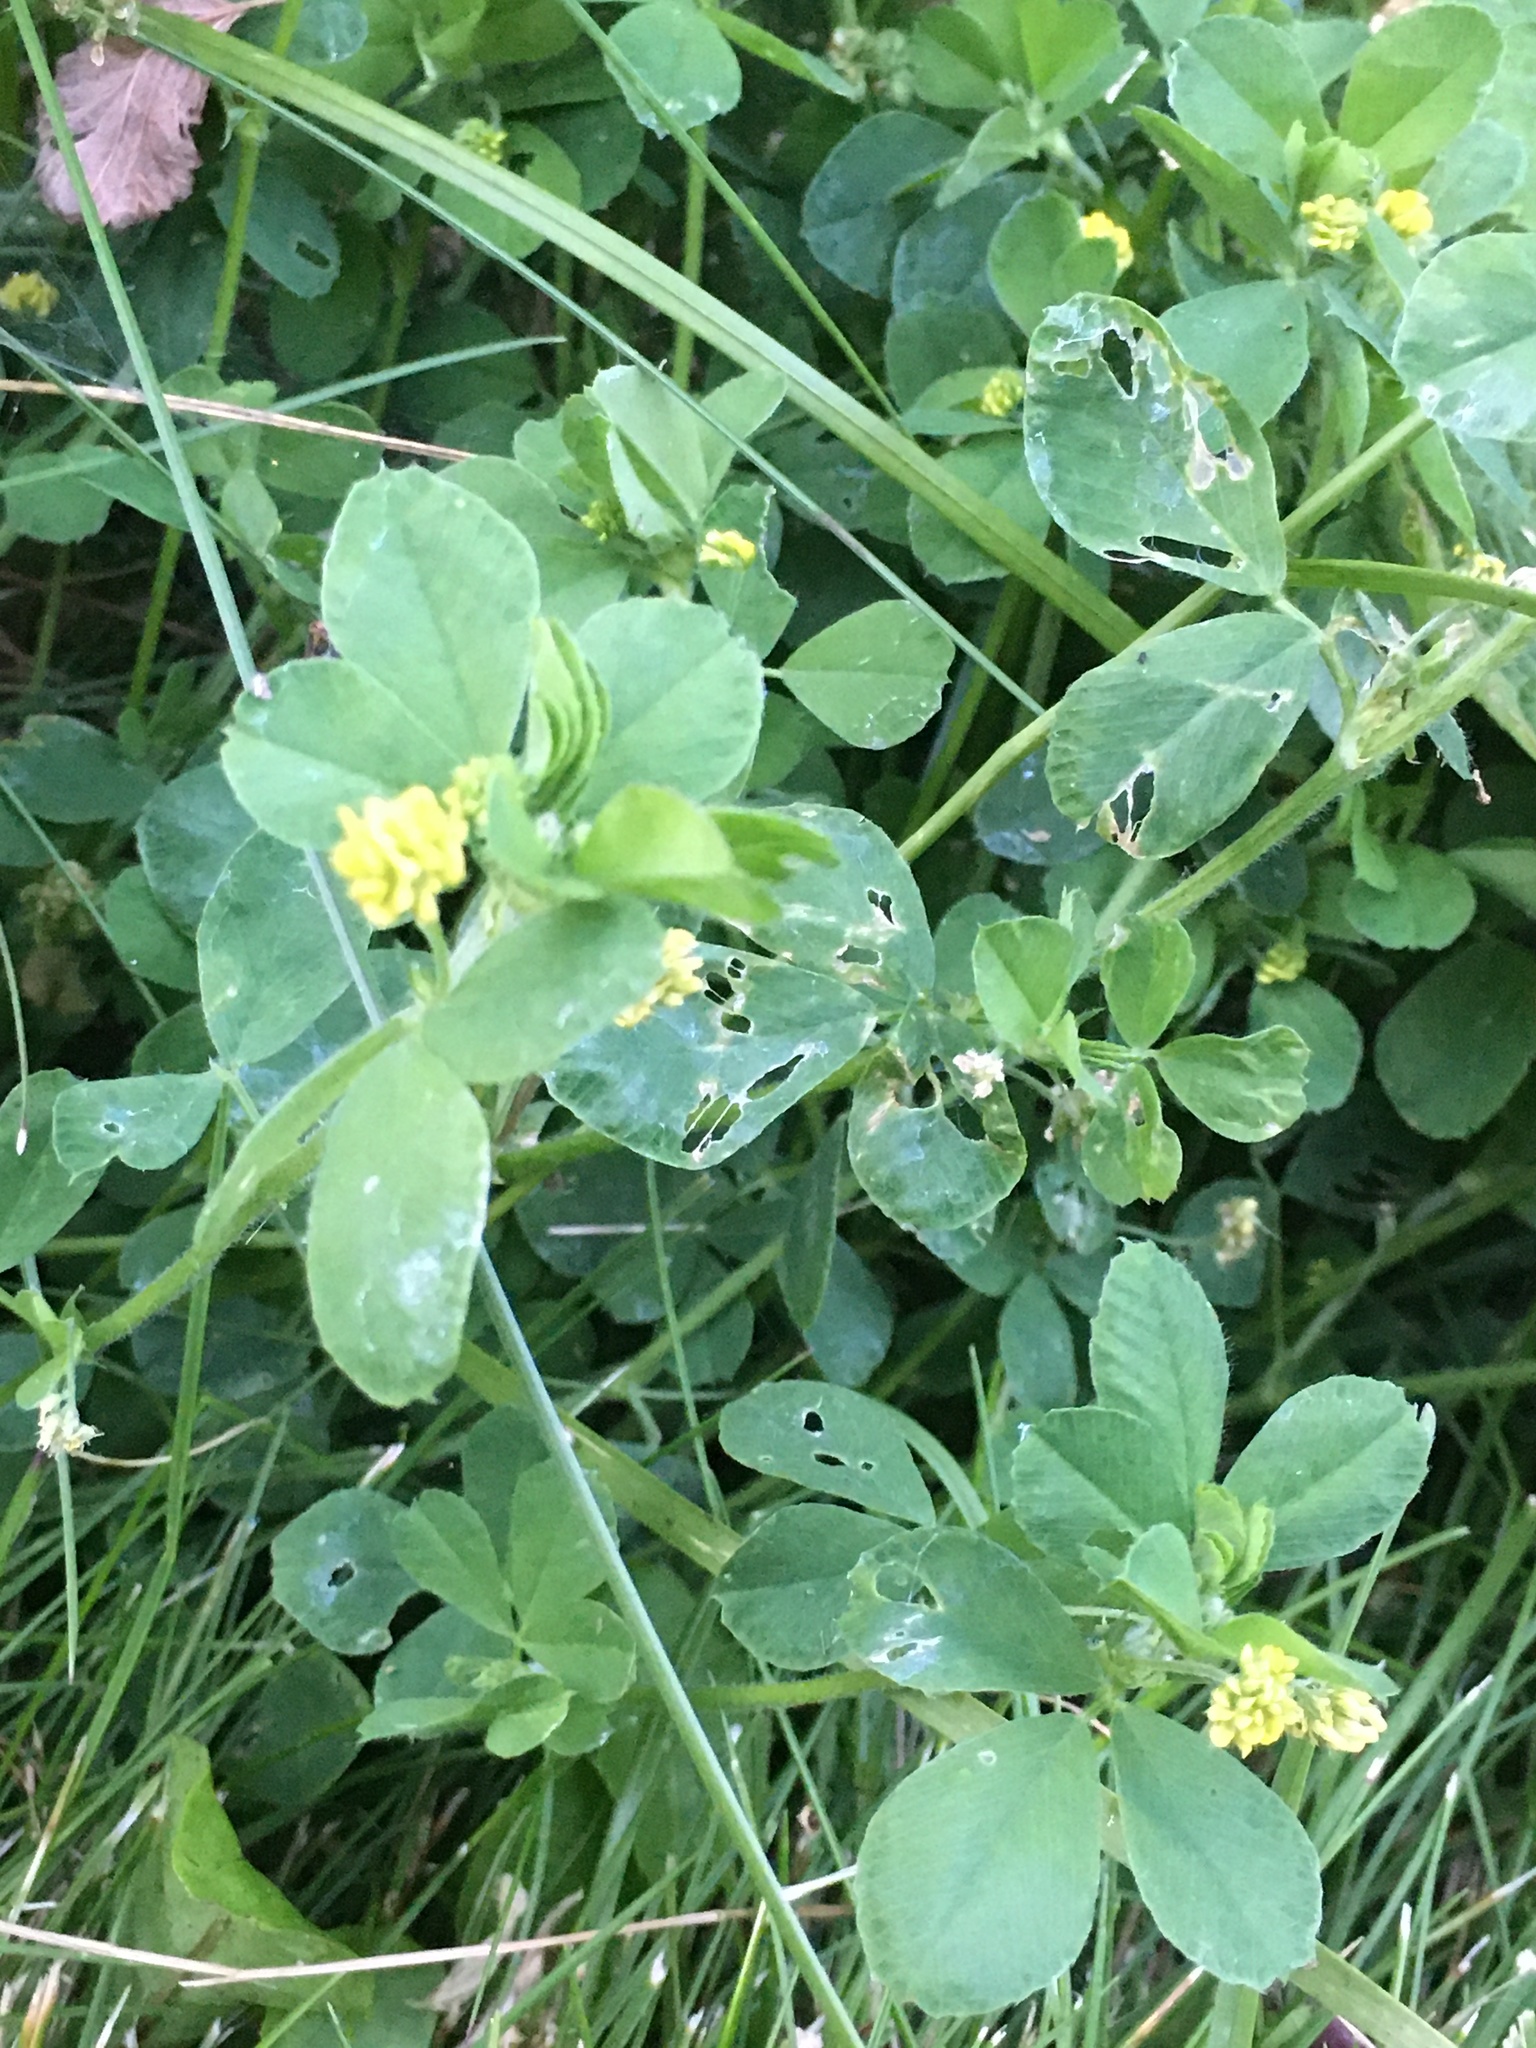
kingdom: Plantae
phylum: Tracheophyta
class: Magnoliopsida
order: Fabales
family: Fabaceae
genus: Medicago
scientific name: Medicago lupulina
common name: Black medick
